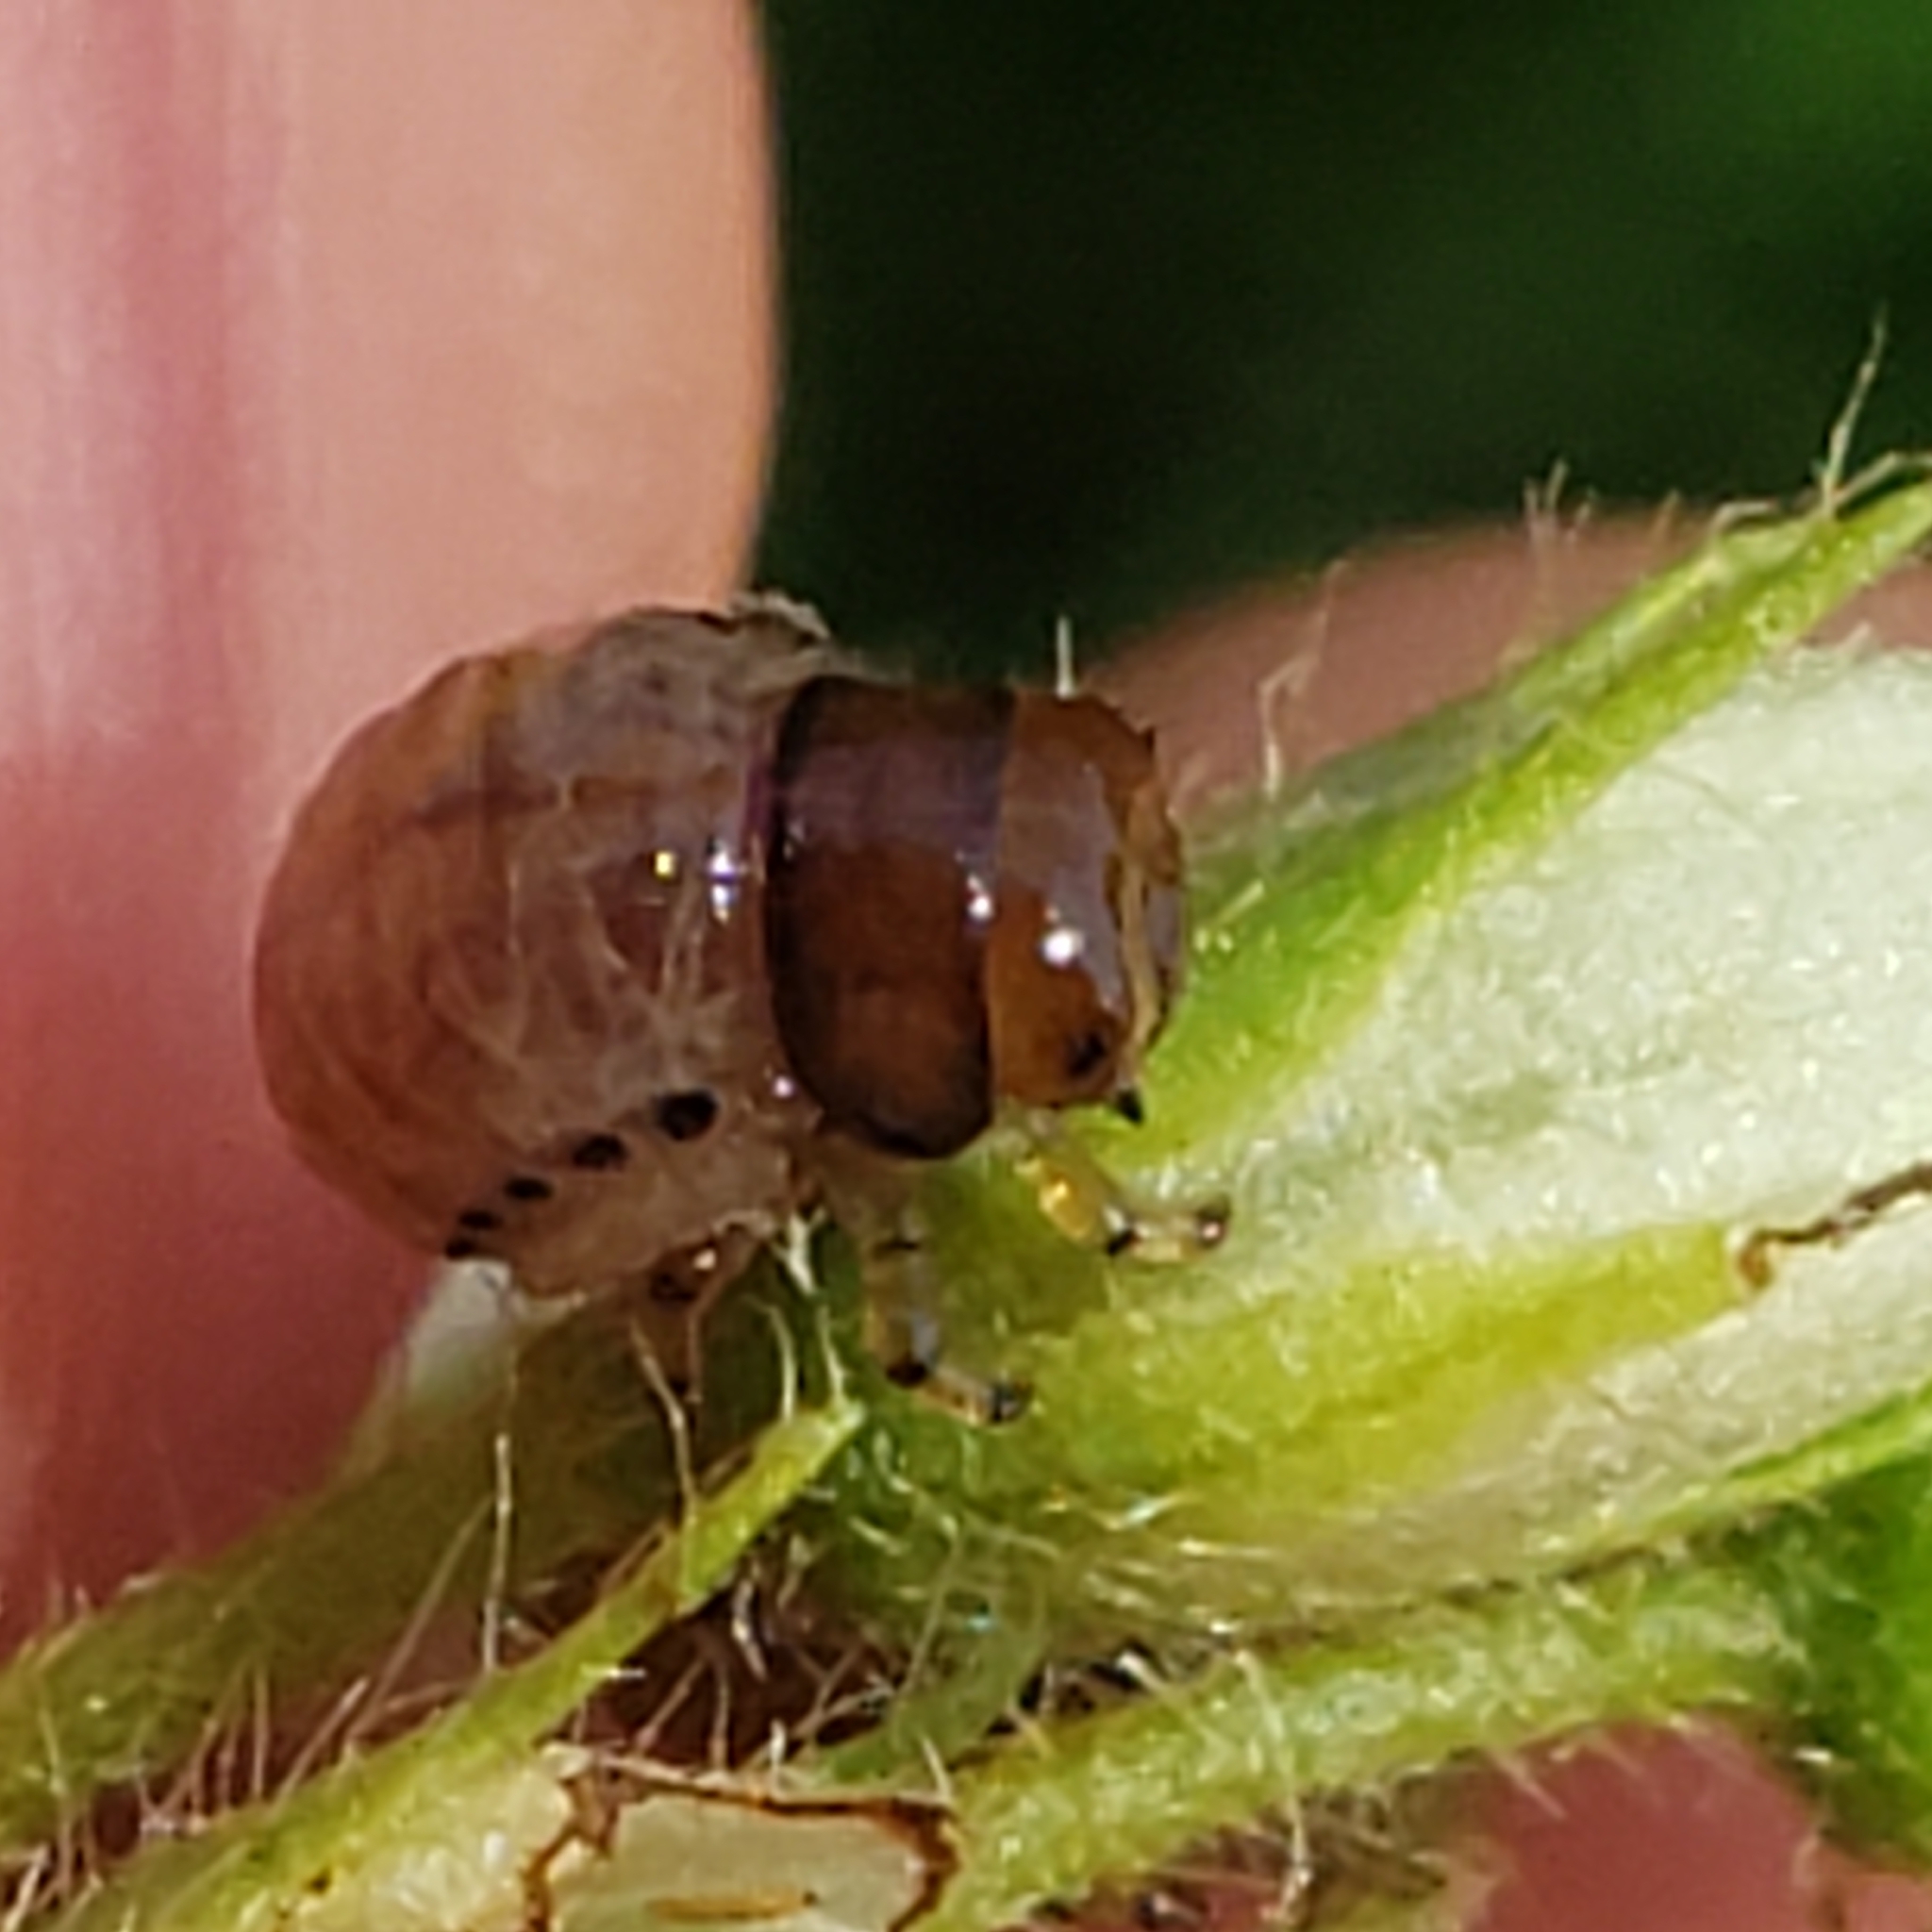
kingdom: Animalia
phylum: Arthropoda
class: Insecta
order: Coleoptera
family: Chrysomelidae
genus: Leptinotarsa
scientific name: Leptinotarsa juncta
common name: False potato beetle
